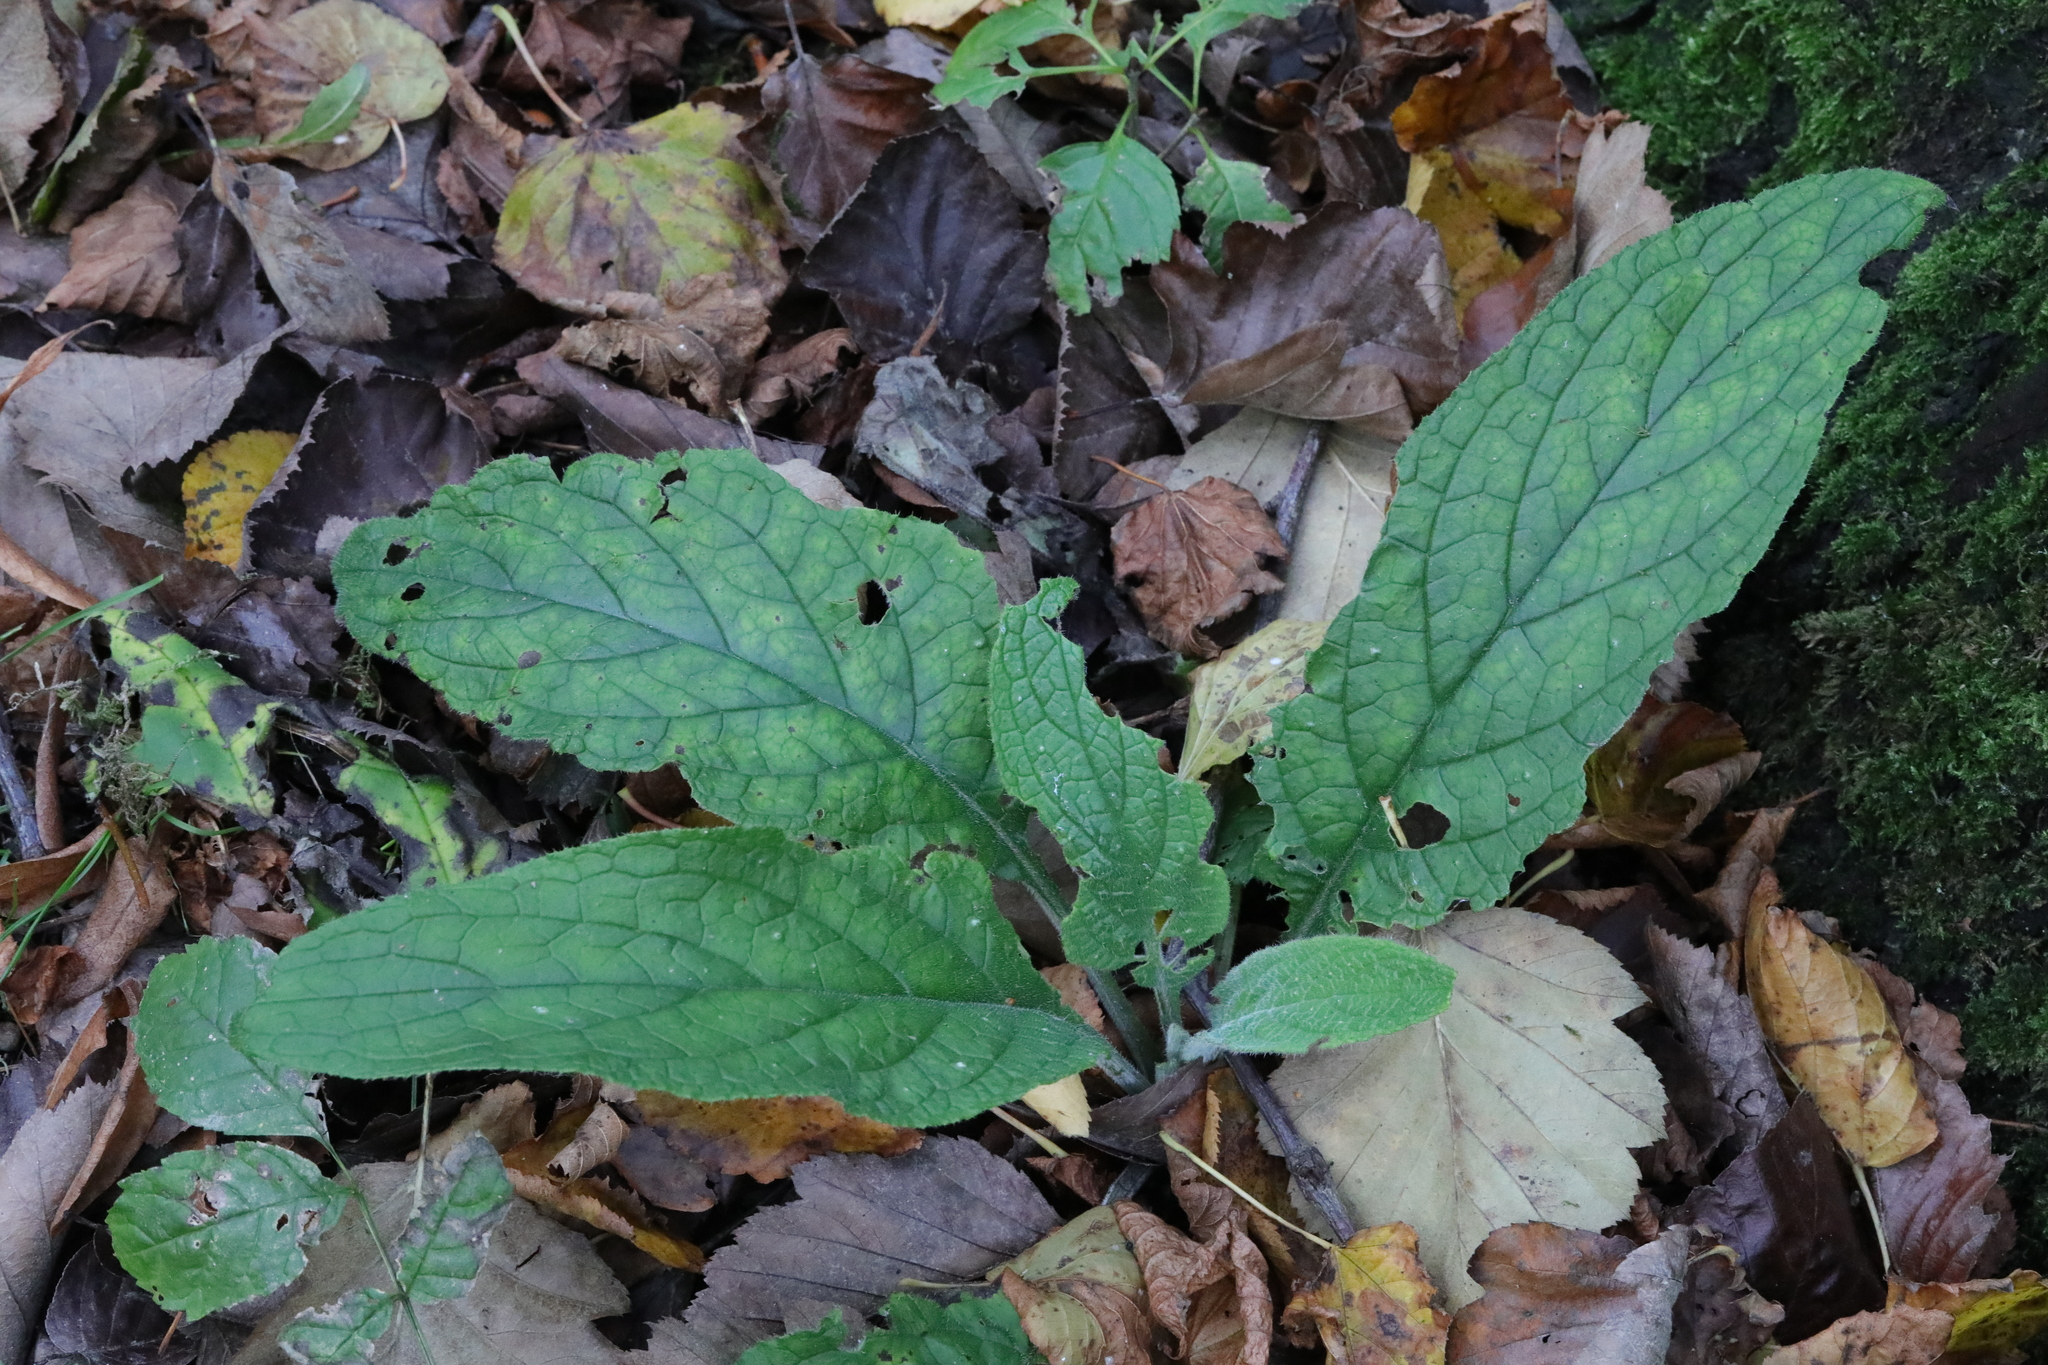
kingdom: Plantae
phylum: Tracheophyta
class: Magnoliopsida
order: Lamiales
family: Plantaginaceae
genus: Digitalis
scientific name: Digitalis purpurea
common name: Foxglove
